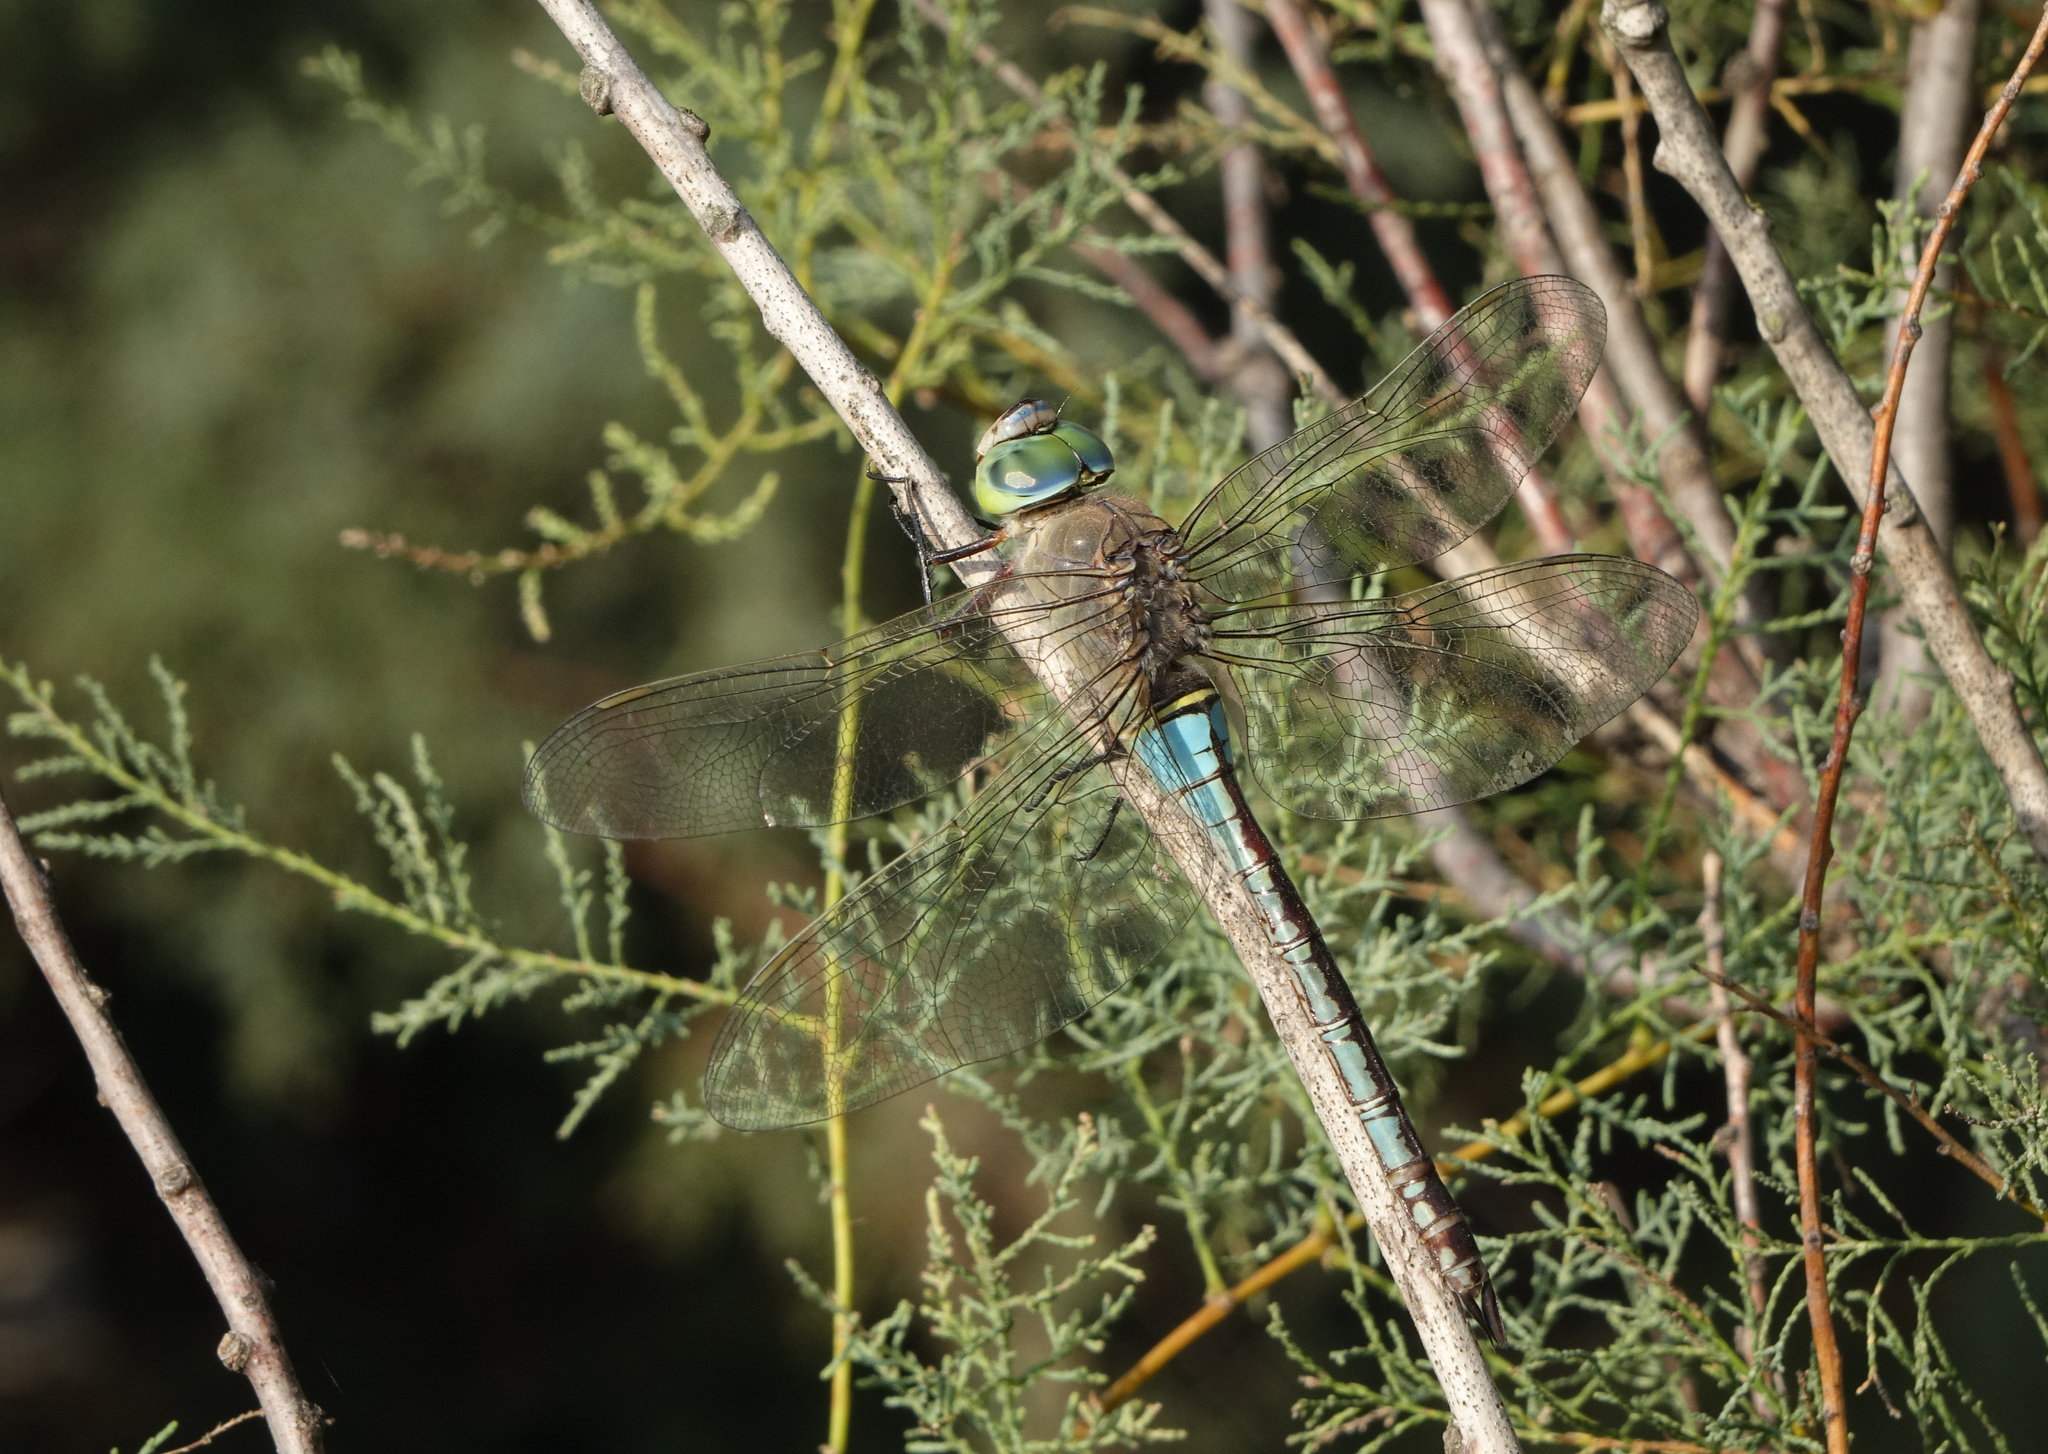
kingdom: Animalia
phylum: Arthropoda
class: Insecta
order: Odonata
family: Aeshnidae
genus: Anax
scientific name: Anax parthenope
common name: Lesser emperor
